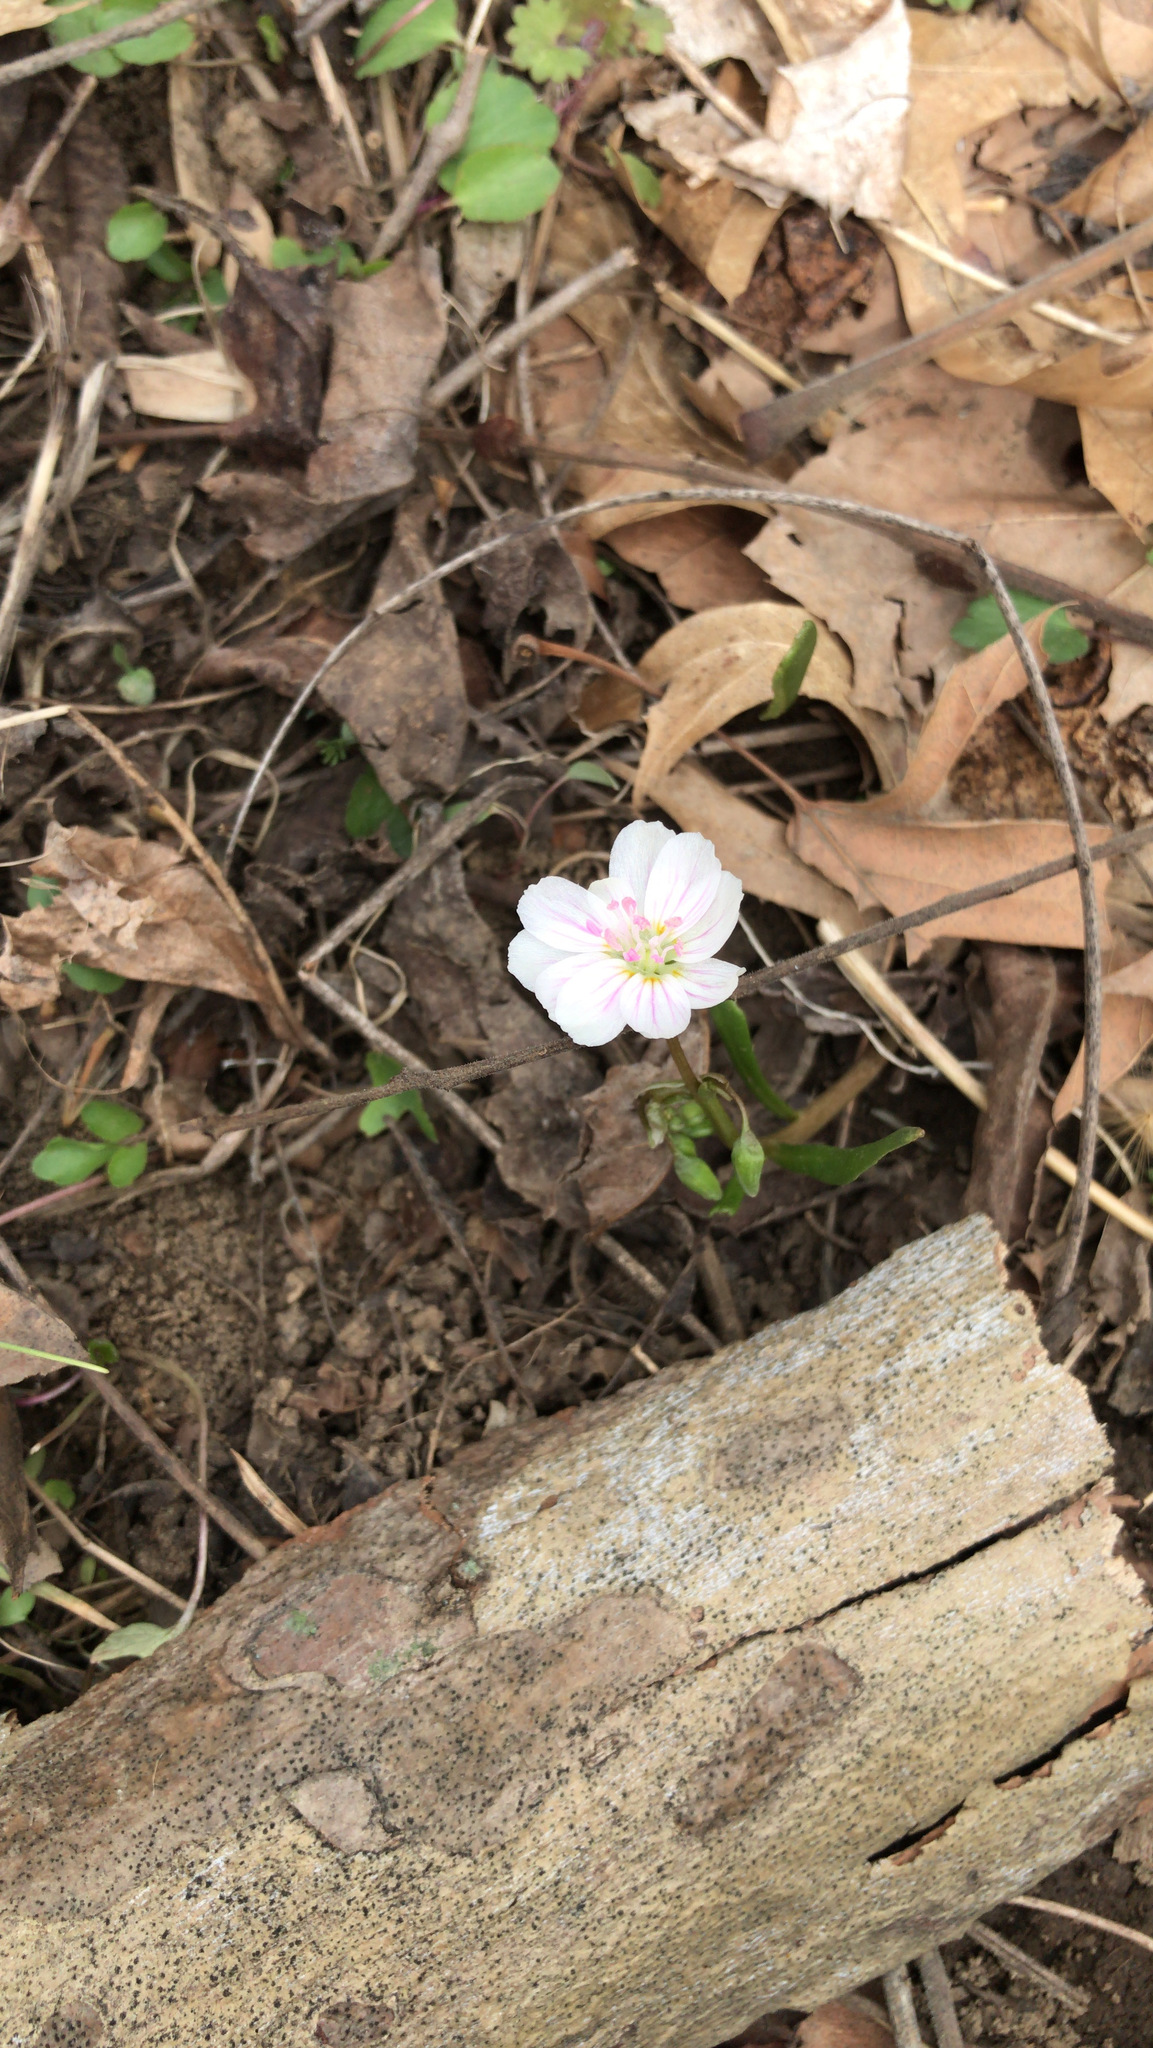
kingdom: Plantae
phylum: Tracheophyta
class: Magnoliopsida
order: Caryophyllales
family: Montiaceae
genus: Claytonia
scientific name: Claytonia virginica
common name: Virginia springbeauty
